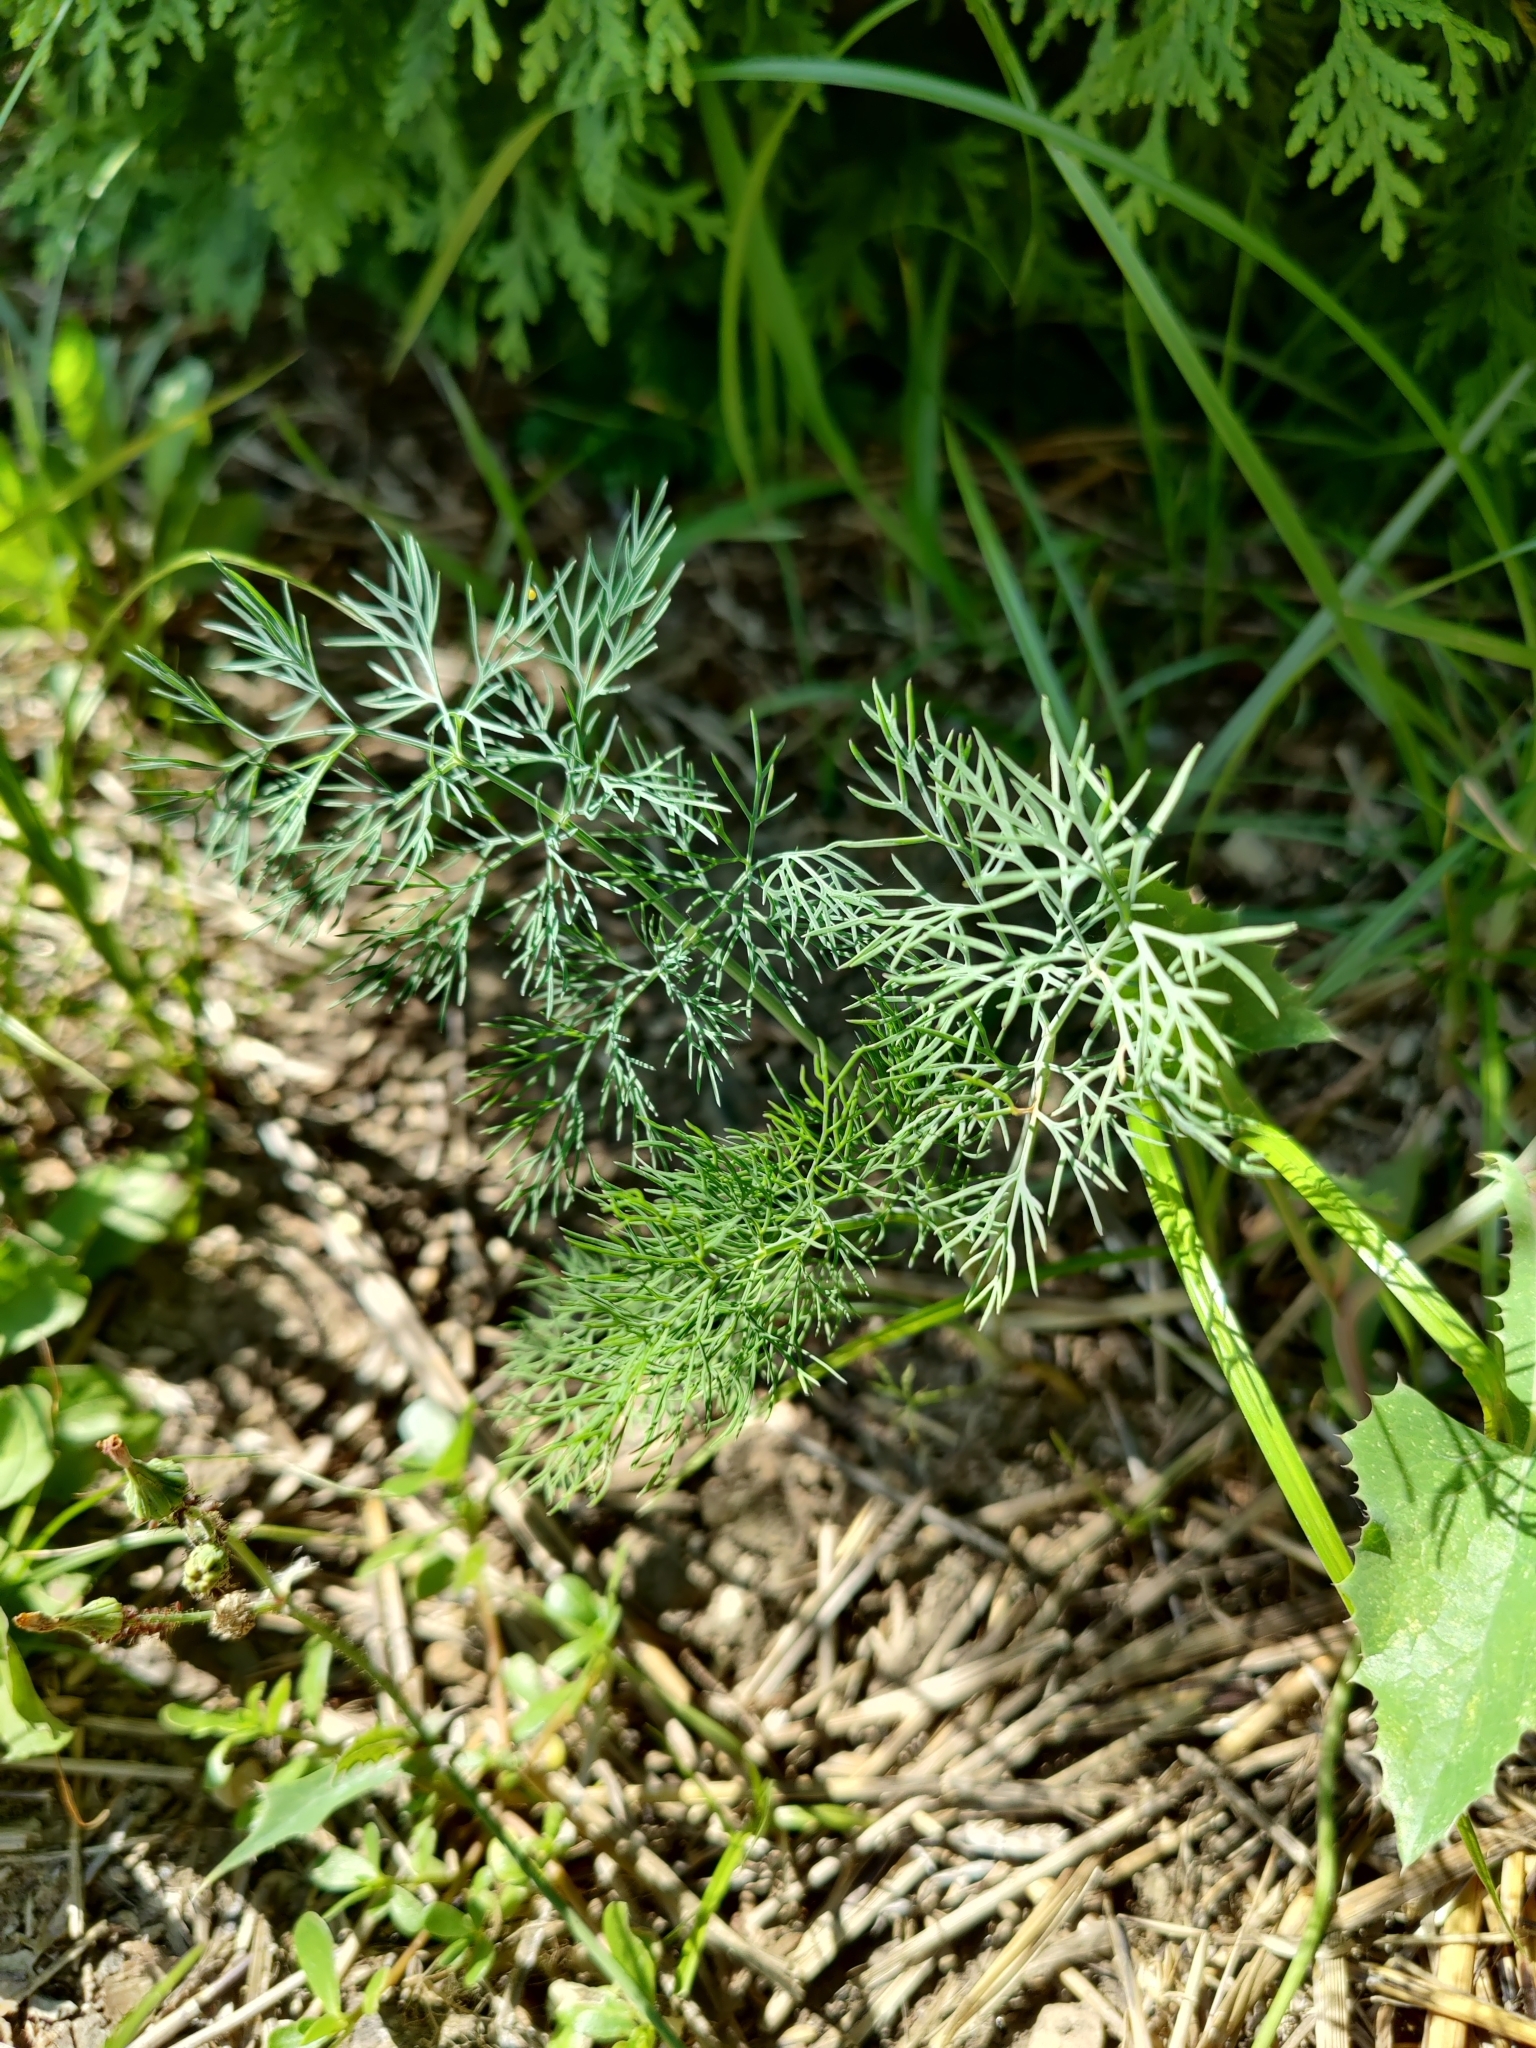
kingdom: Plantae
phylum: Tracheophyta
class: Magnoliopsida
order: Apiales
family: Apiaceae
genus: Anethum
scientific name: Anethum graveolens
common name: Dill
